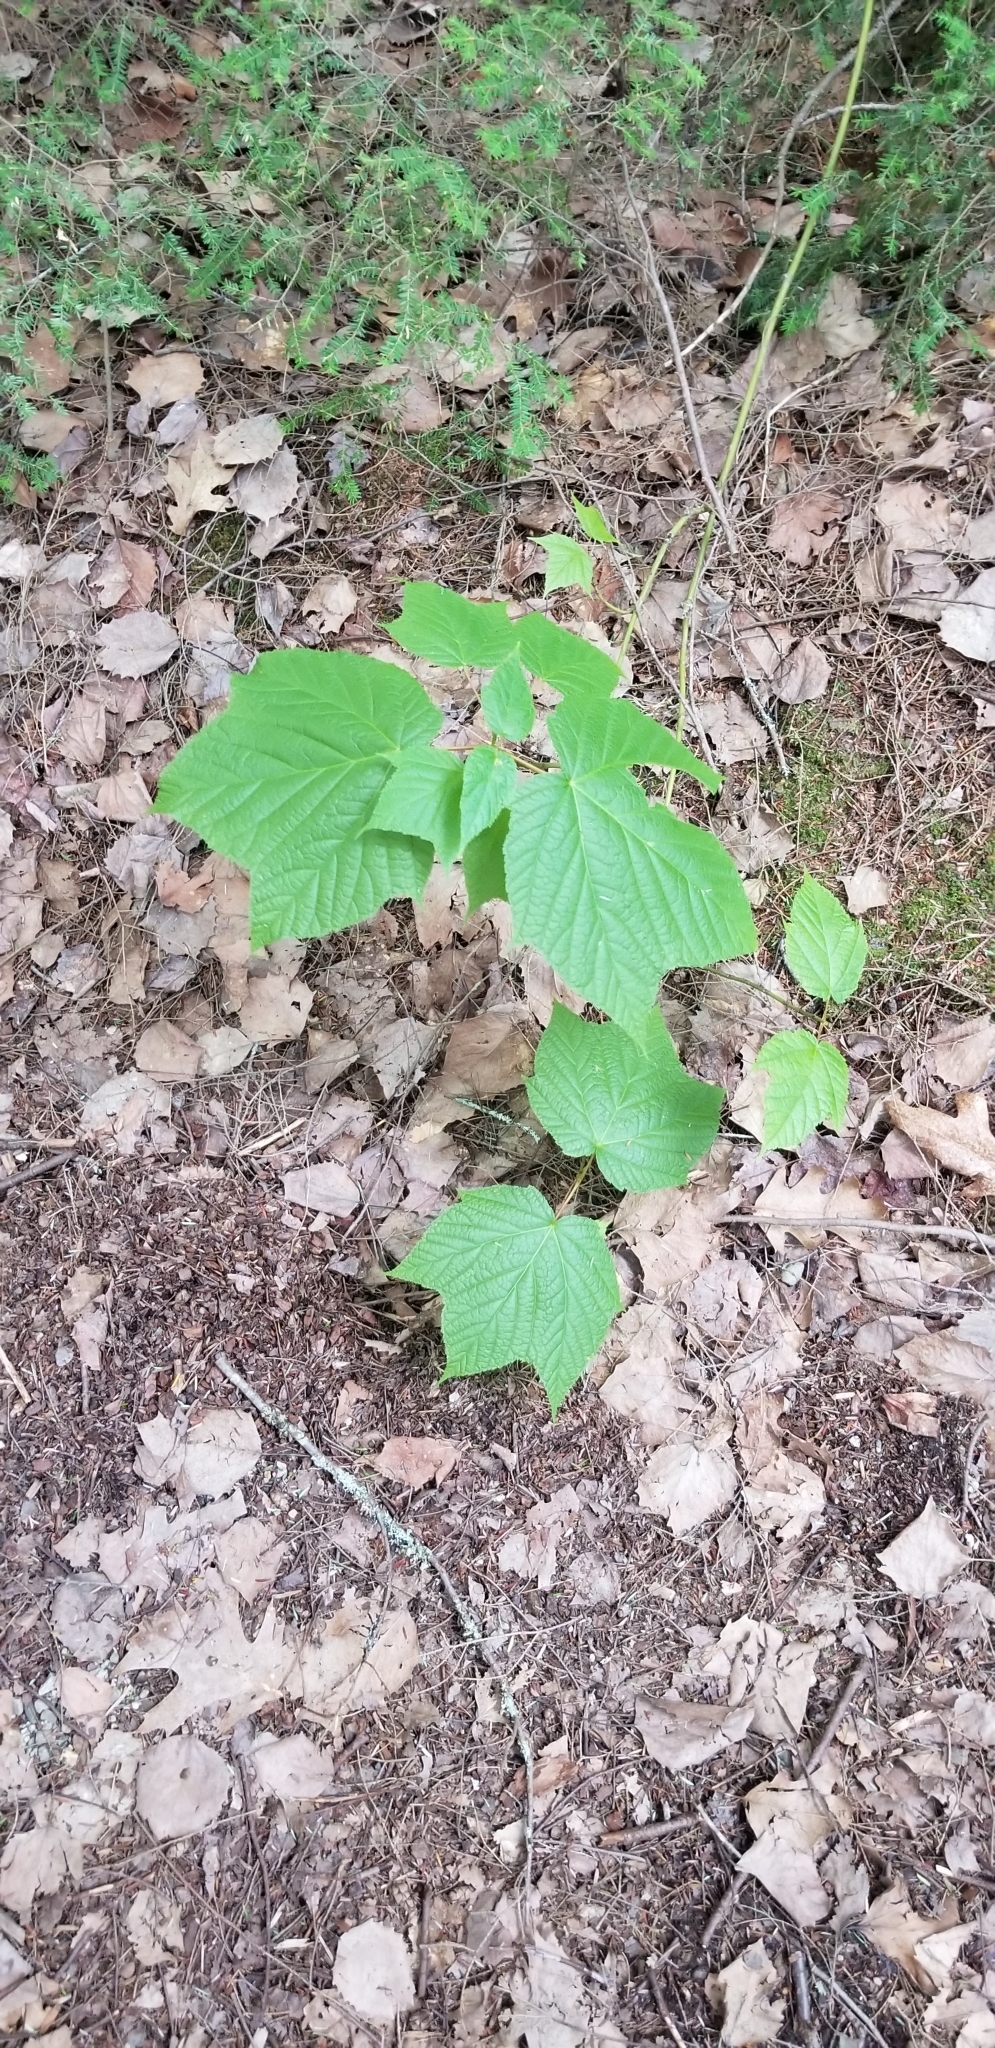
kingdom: Plantae
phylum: Tracheophyta
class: Magnoliopsida
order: Sapindales
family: Sapindaceae
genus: Acer
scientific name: Acer pensylvanicum
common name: Moosewood
